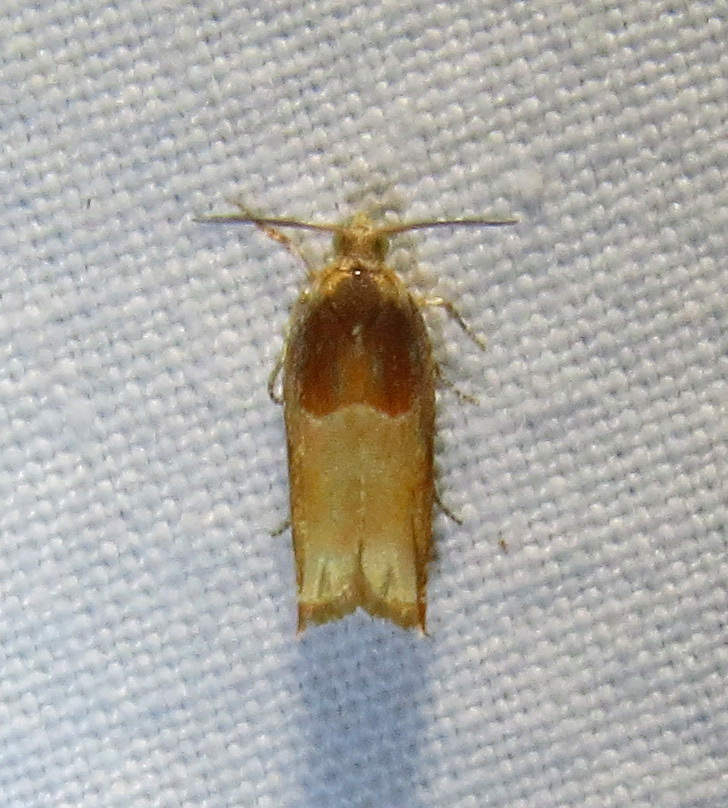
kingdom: Animalia
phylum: Arthropoda
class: Insecta
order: Lepidoptera
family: Tortricidae
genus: Ancylis
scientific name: Ancylis divisana
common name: Two-toned ancylis moth
